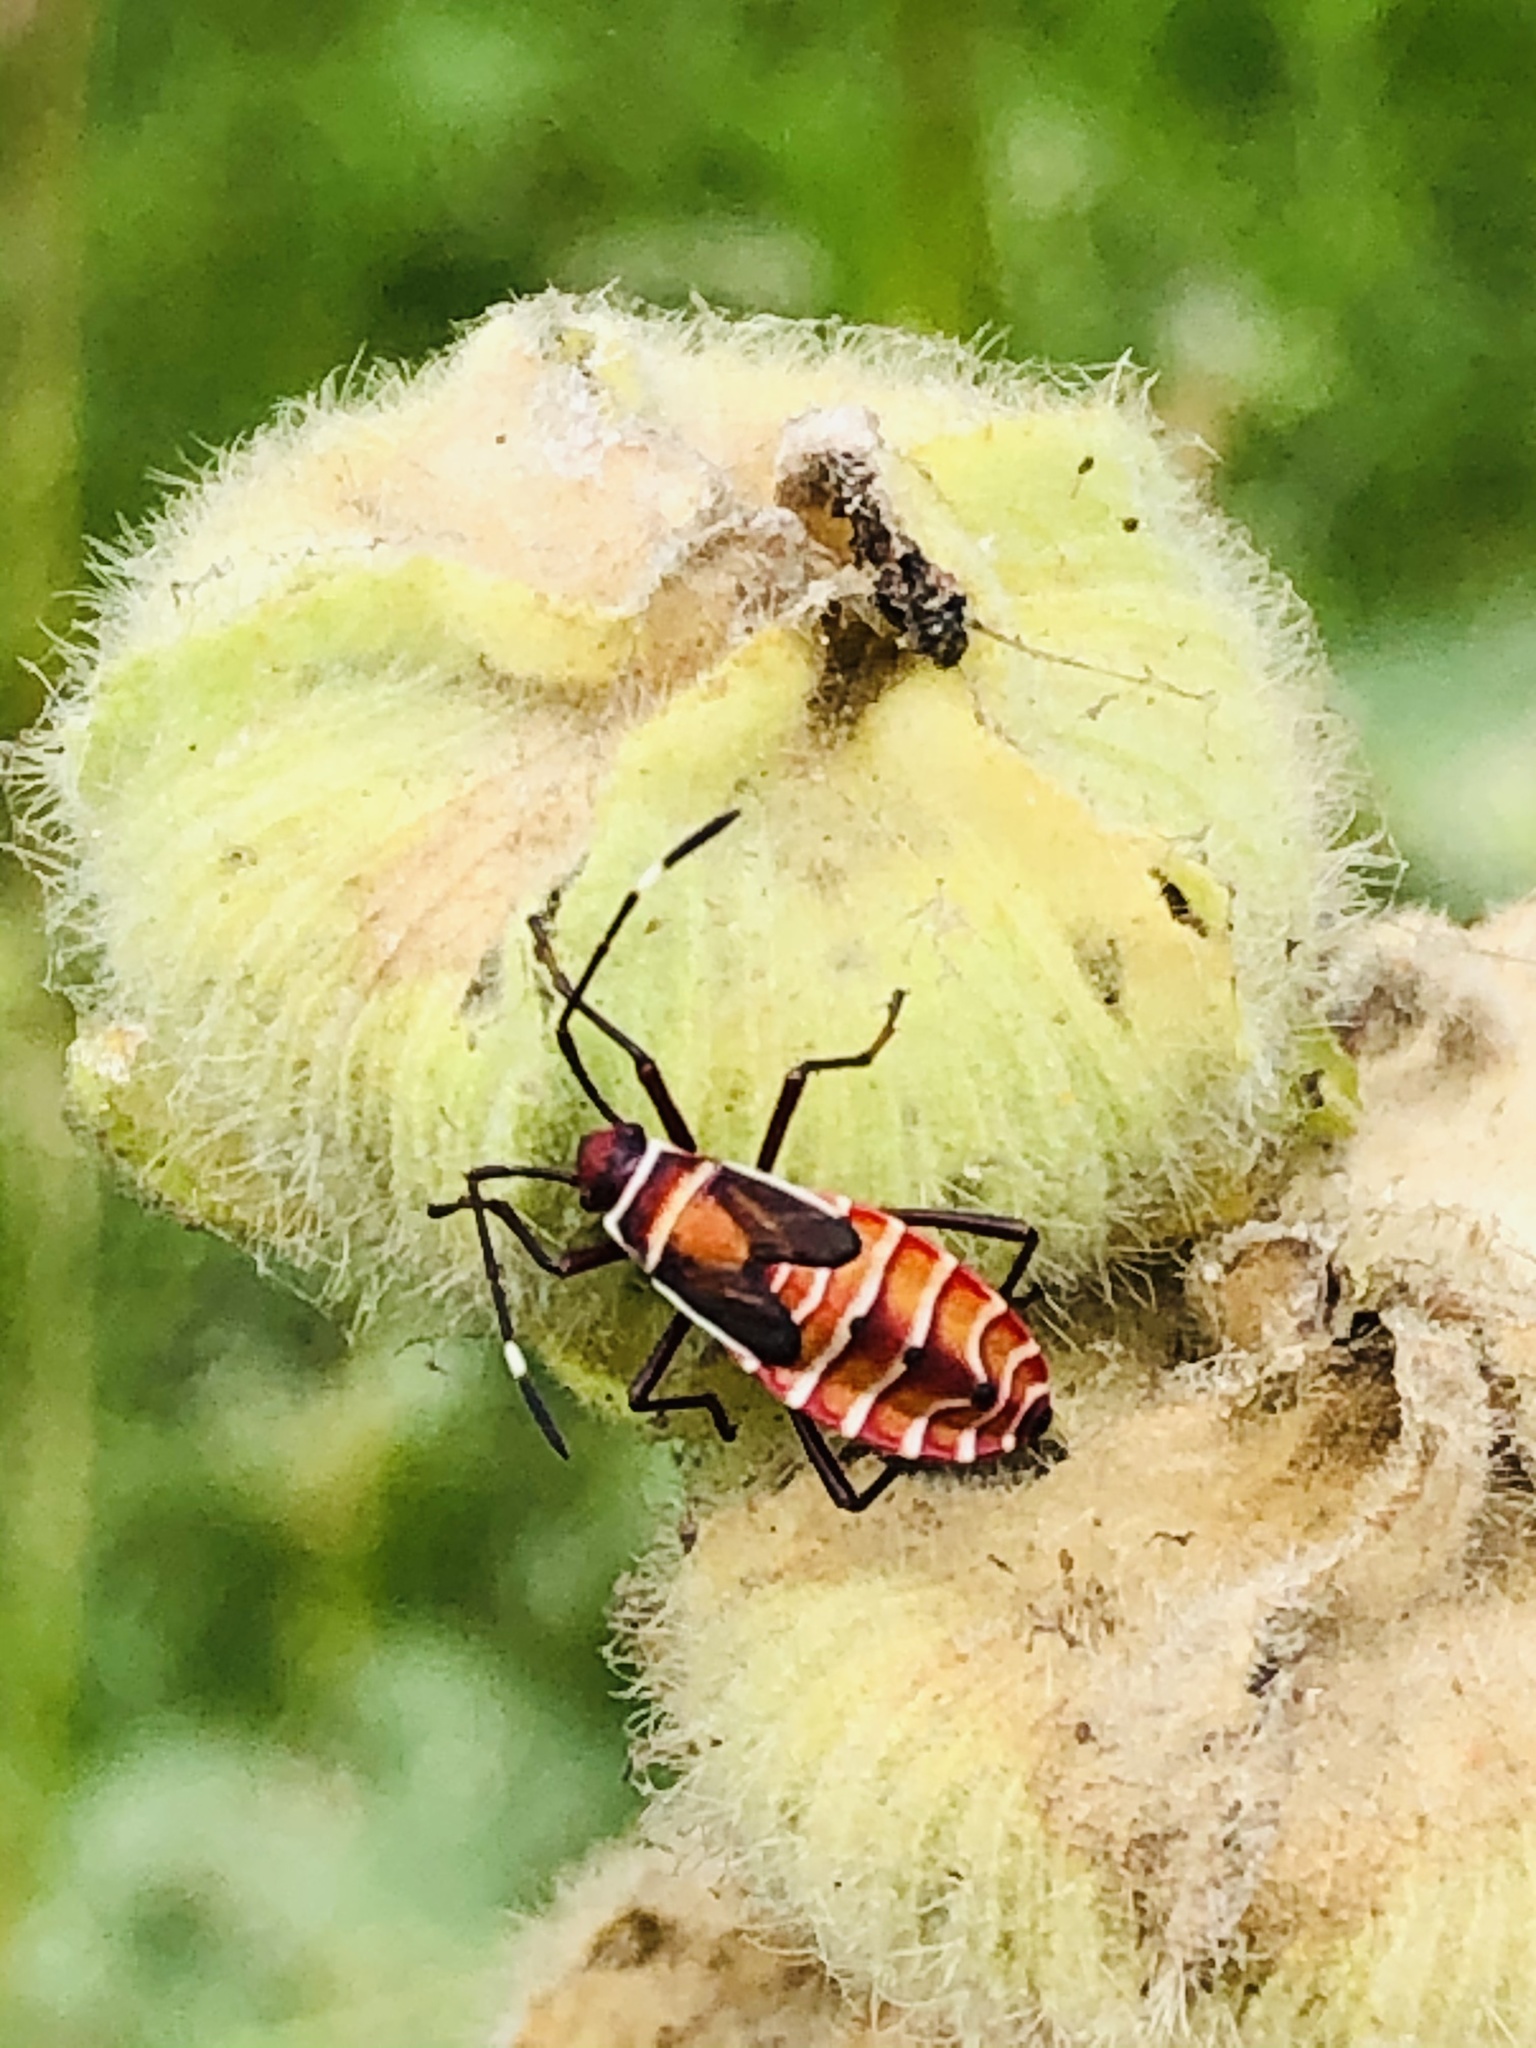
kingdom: Animalia
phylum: Arthropoda
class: Insecta
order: Hemiptera
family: Pyrrhocoridae
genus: Dysdercus
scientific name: Dysdercus peruvianus
